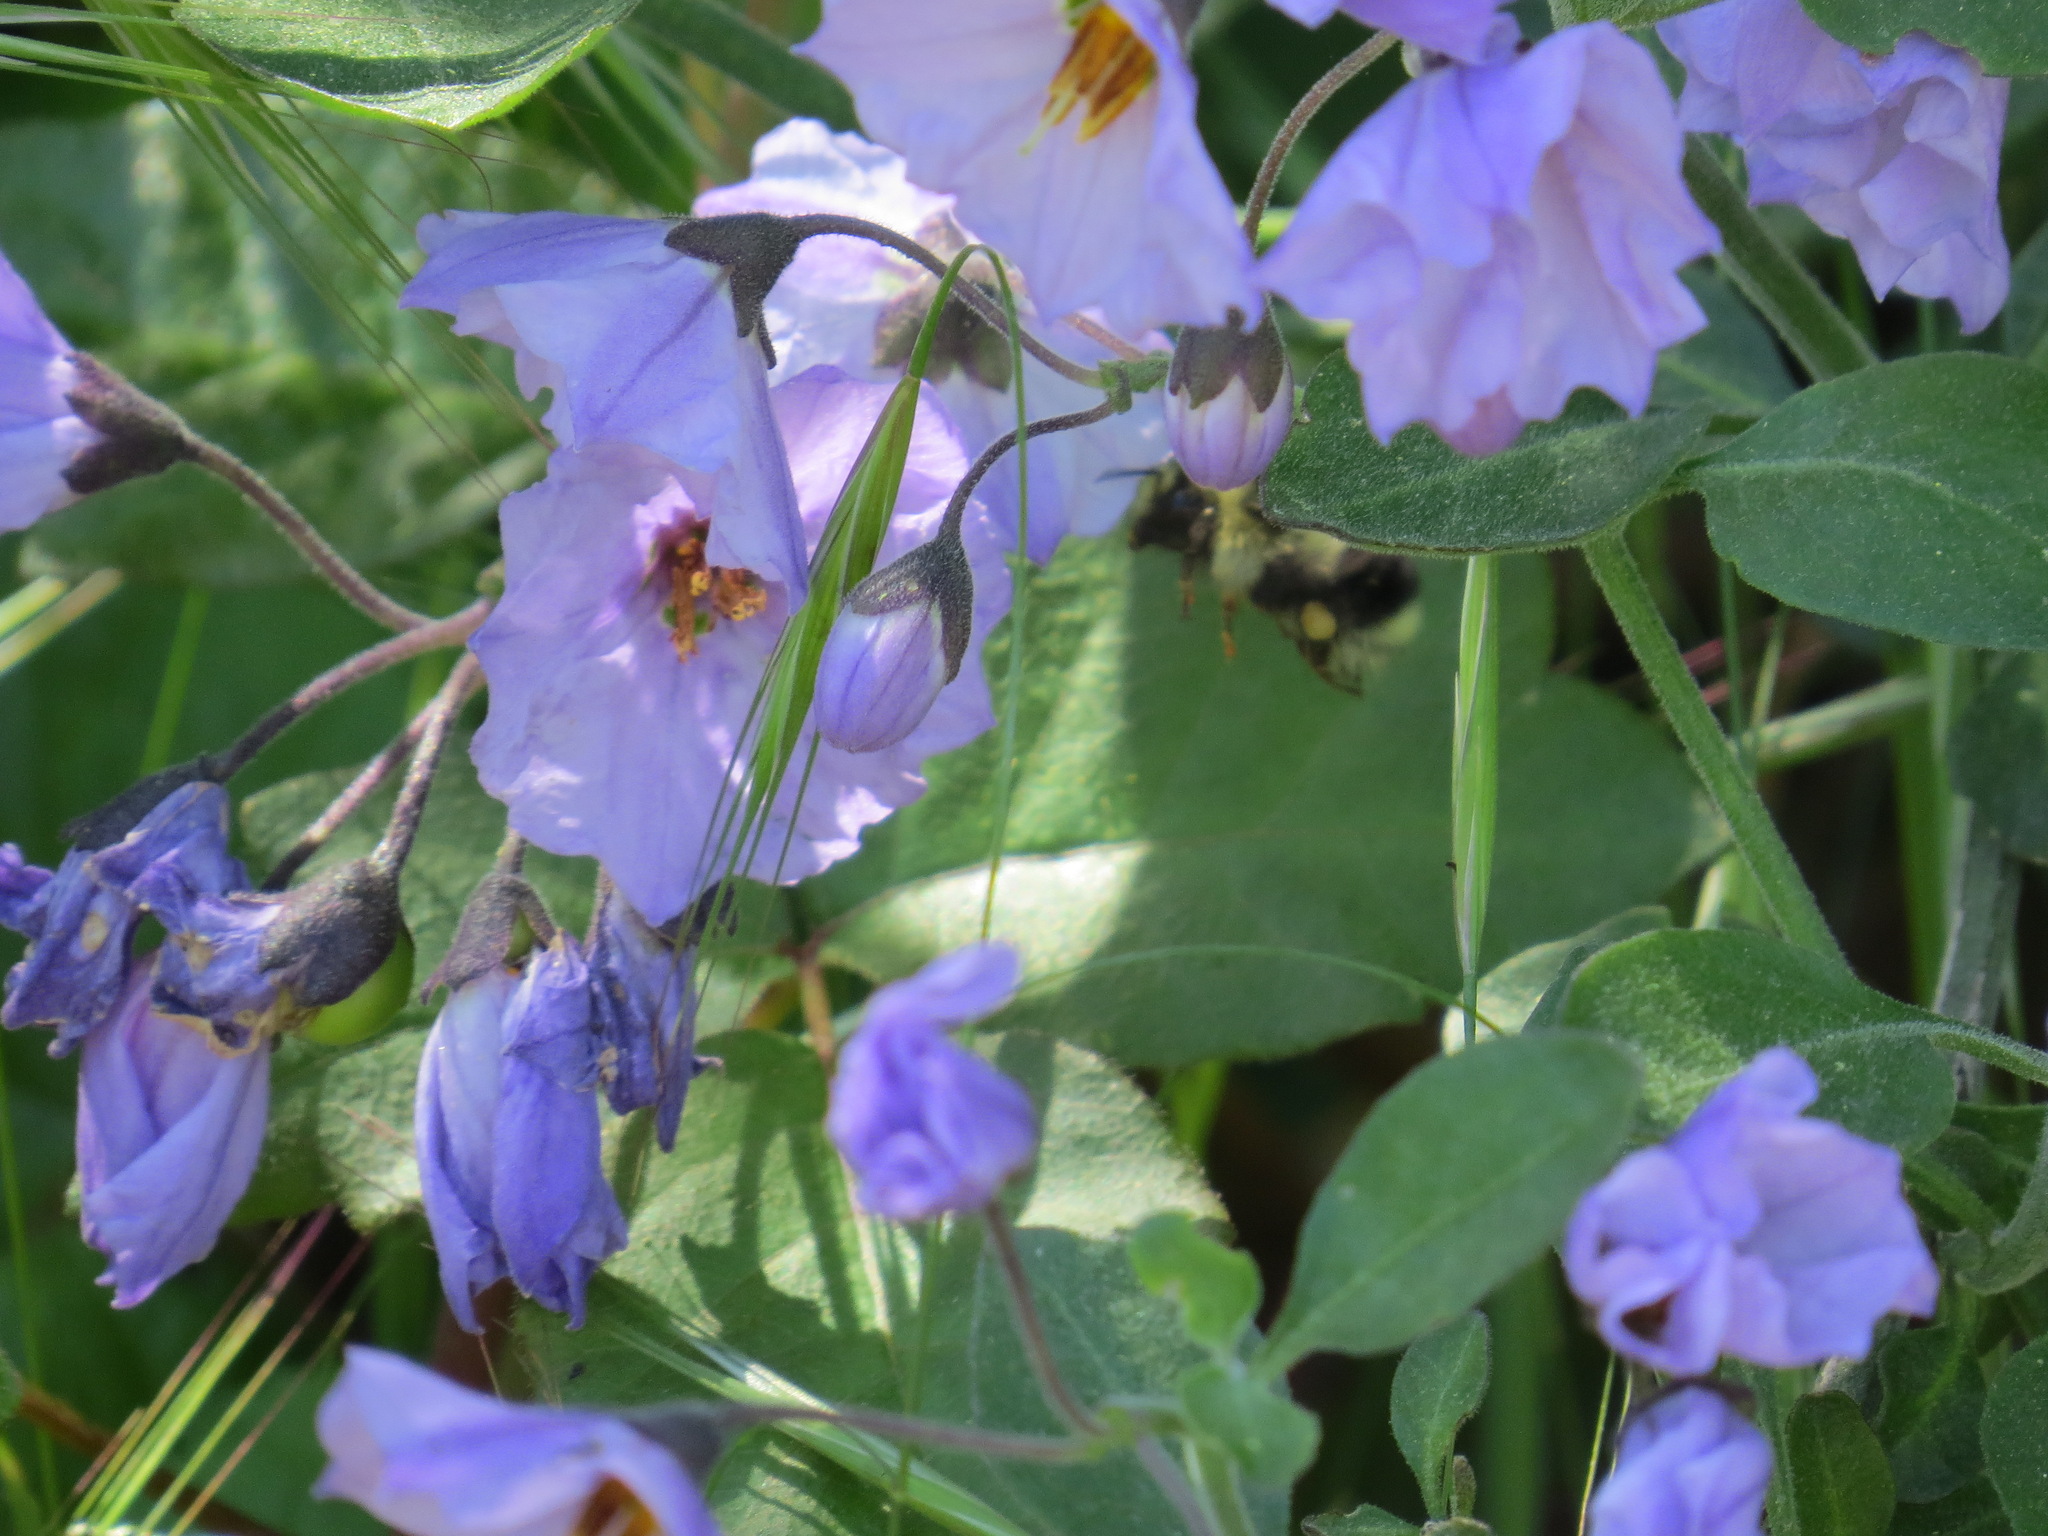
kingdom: Plantae
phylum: Tracheophyta
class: Magnoliopsida
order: Solanales
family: Solanaceae
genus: Solanum
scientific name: Solanum umbelliferum
